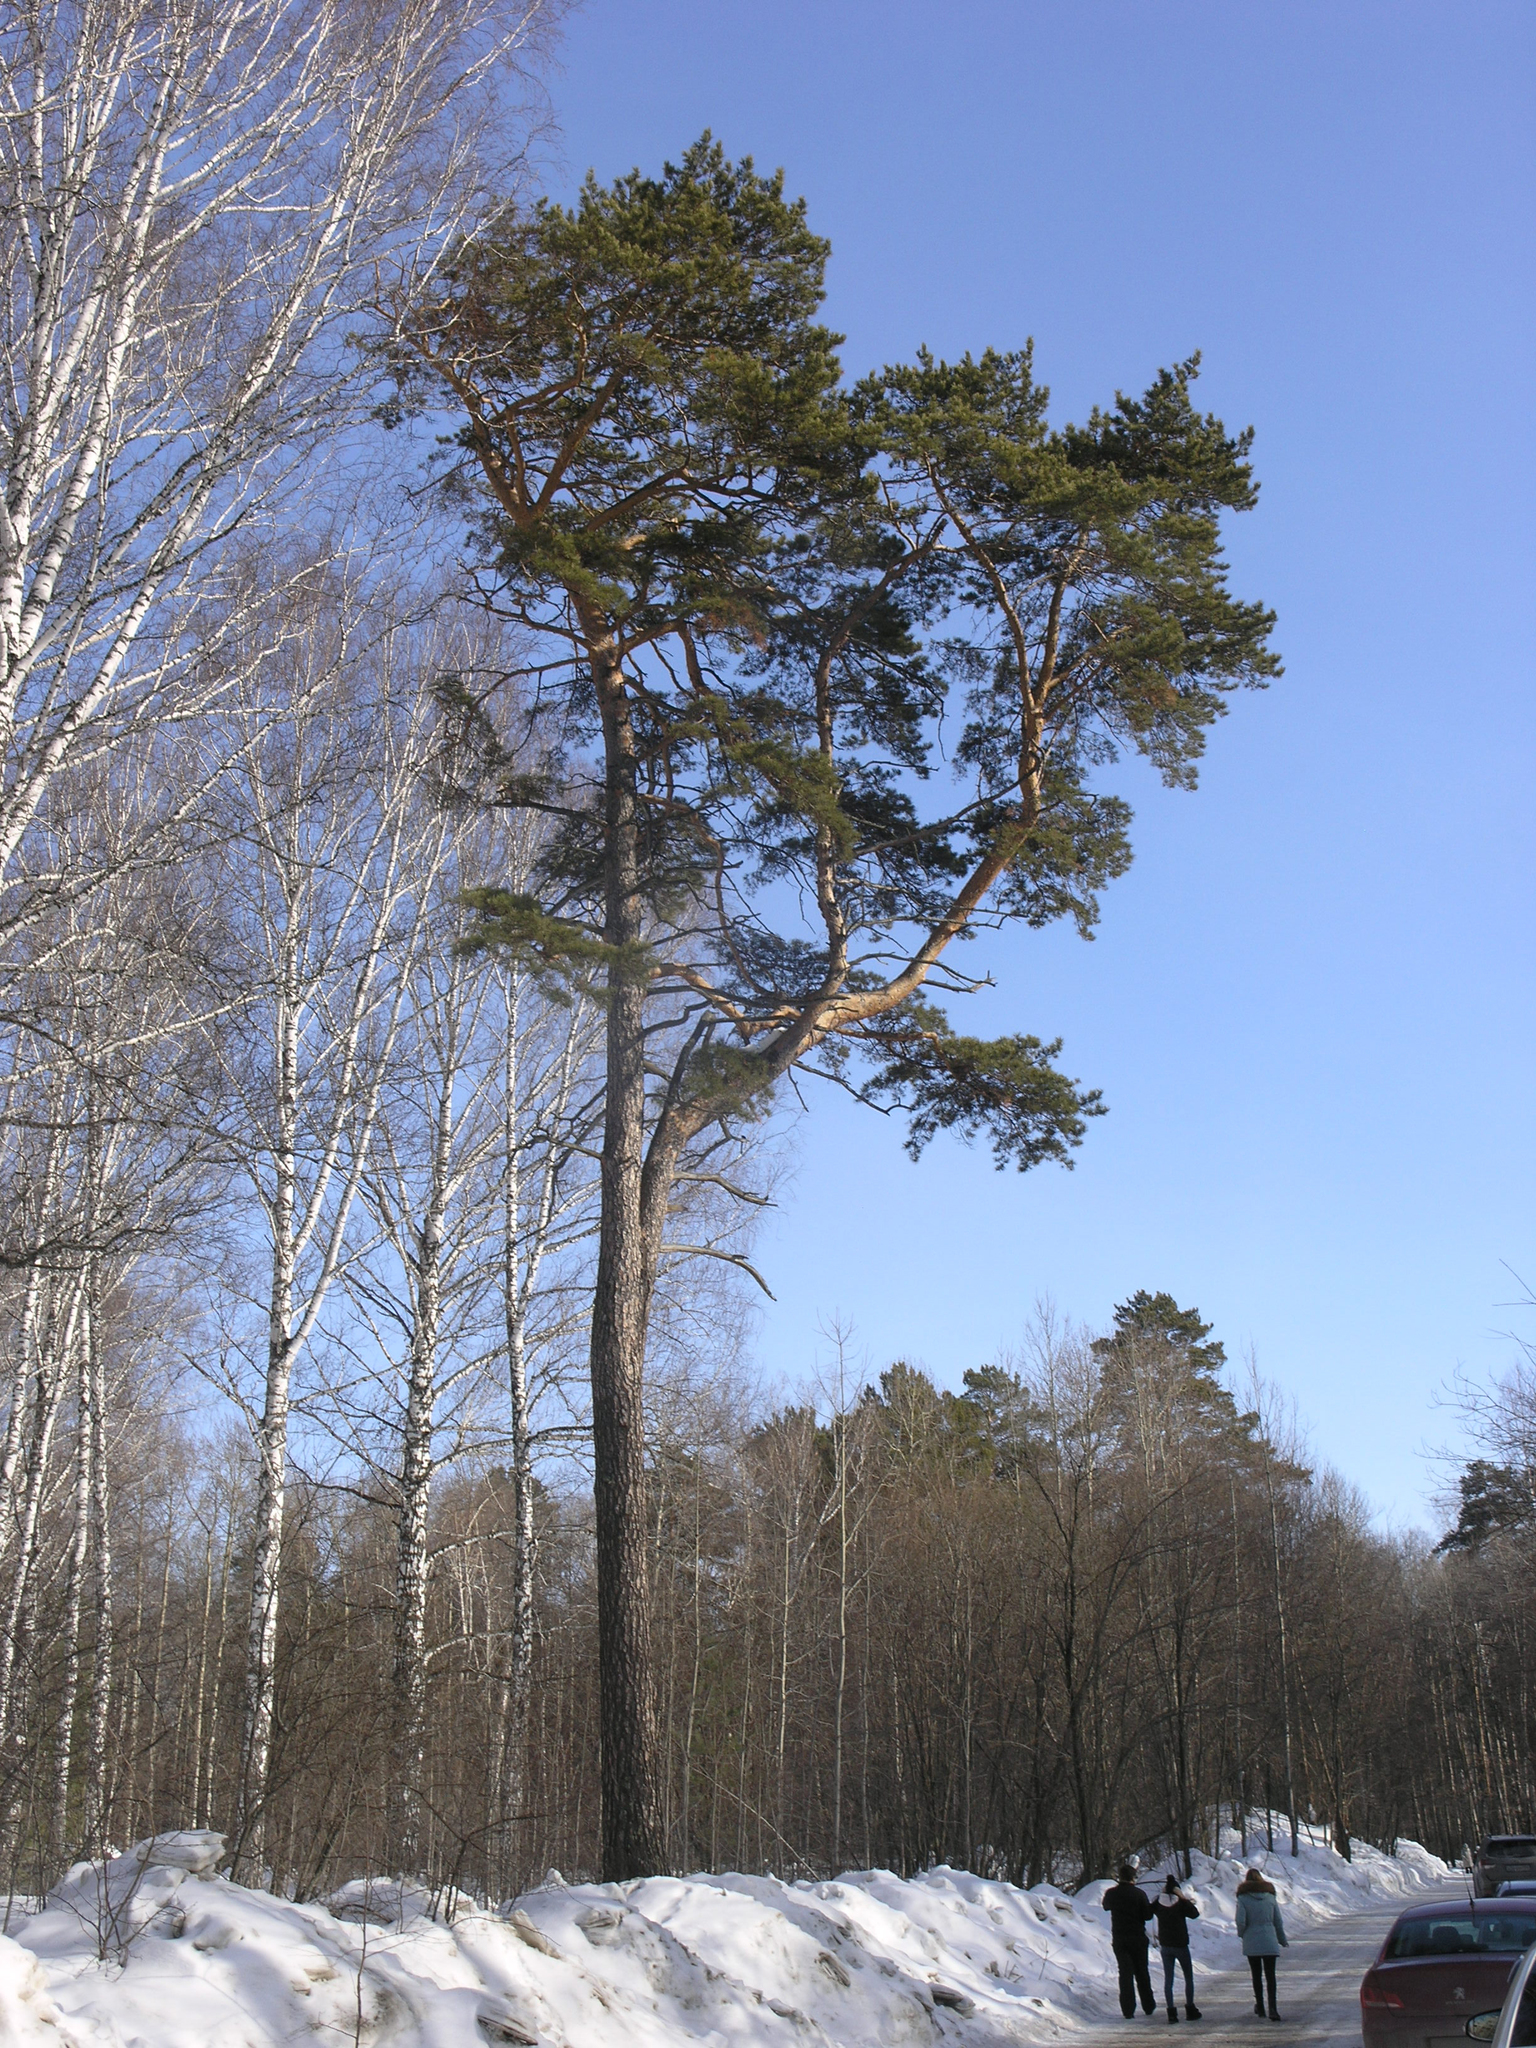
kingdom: Plantae
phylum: Tracheophyta
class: Pinopsida
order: Pinales
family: Pinaceae
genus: Pinus
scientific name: Pinus sylvestris
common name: Scots pine
